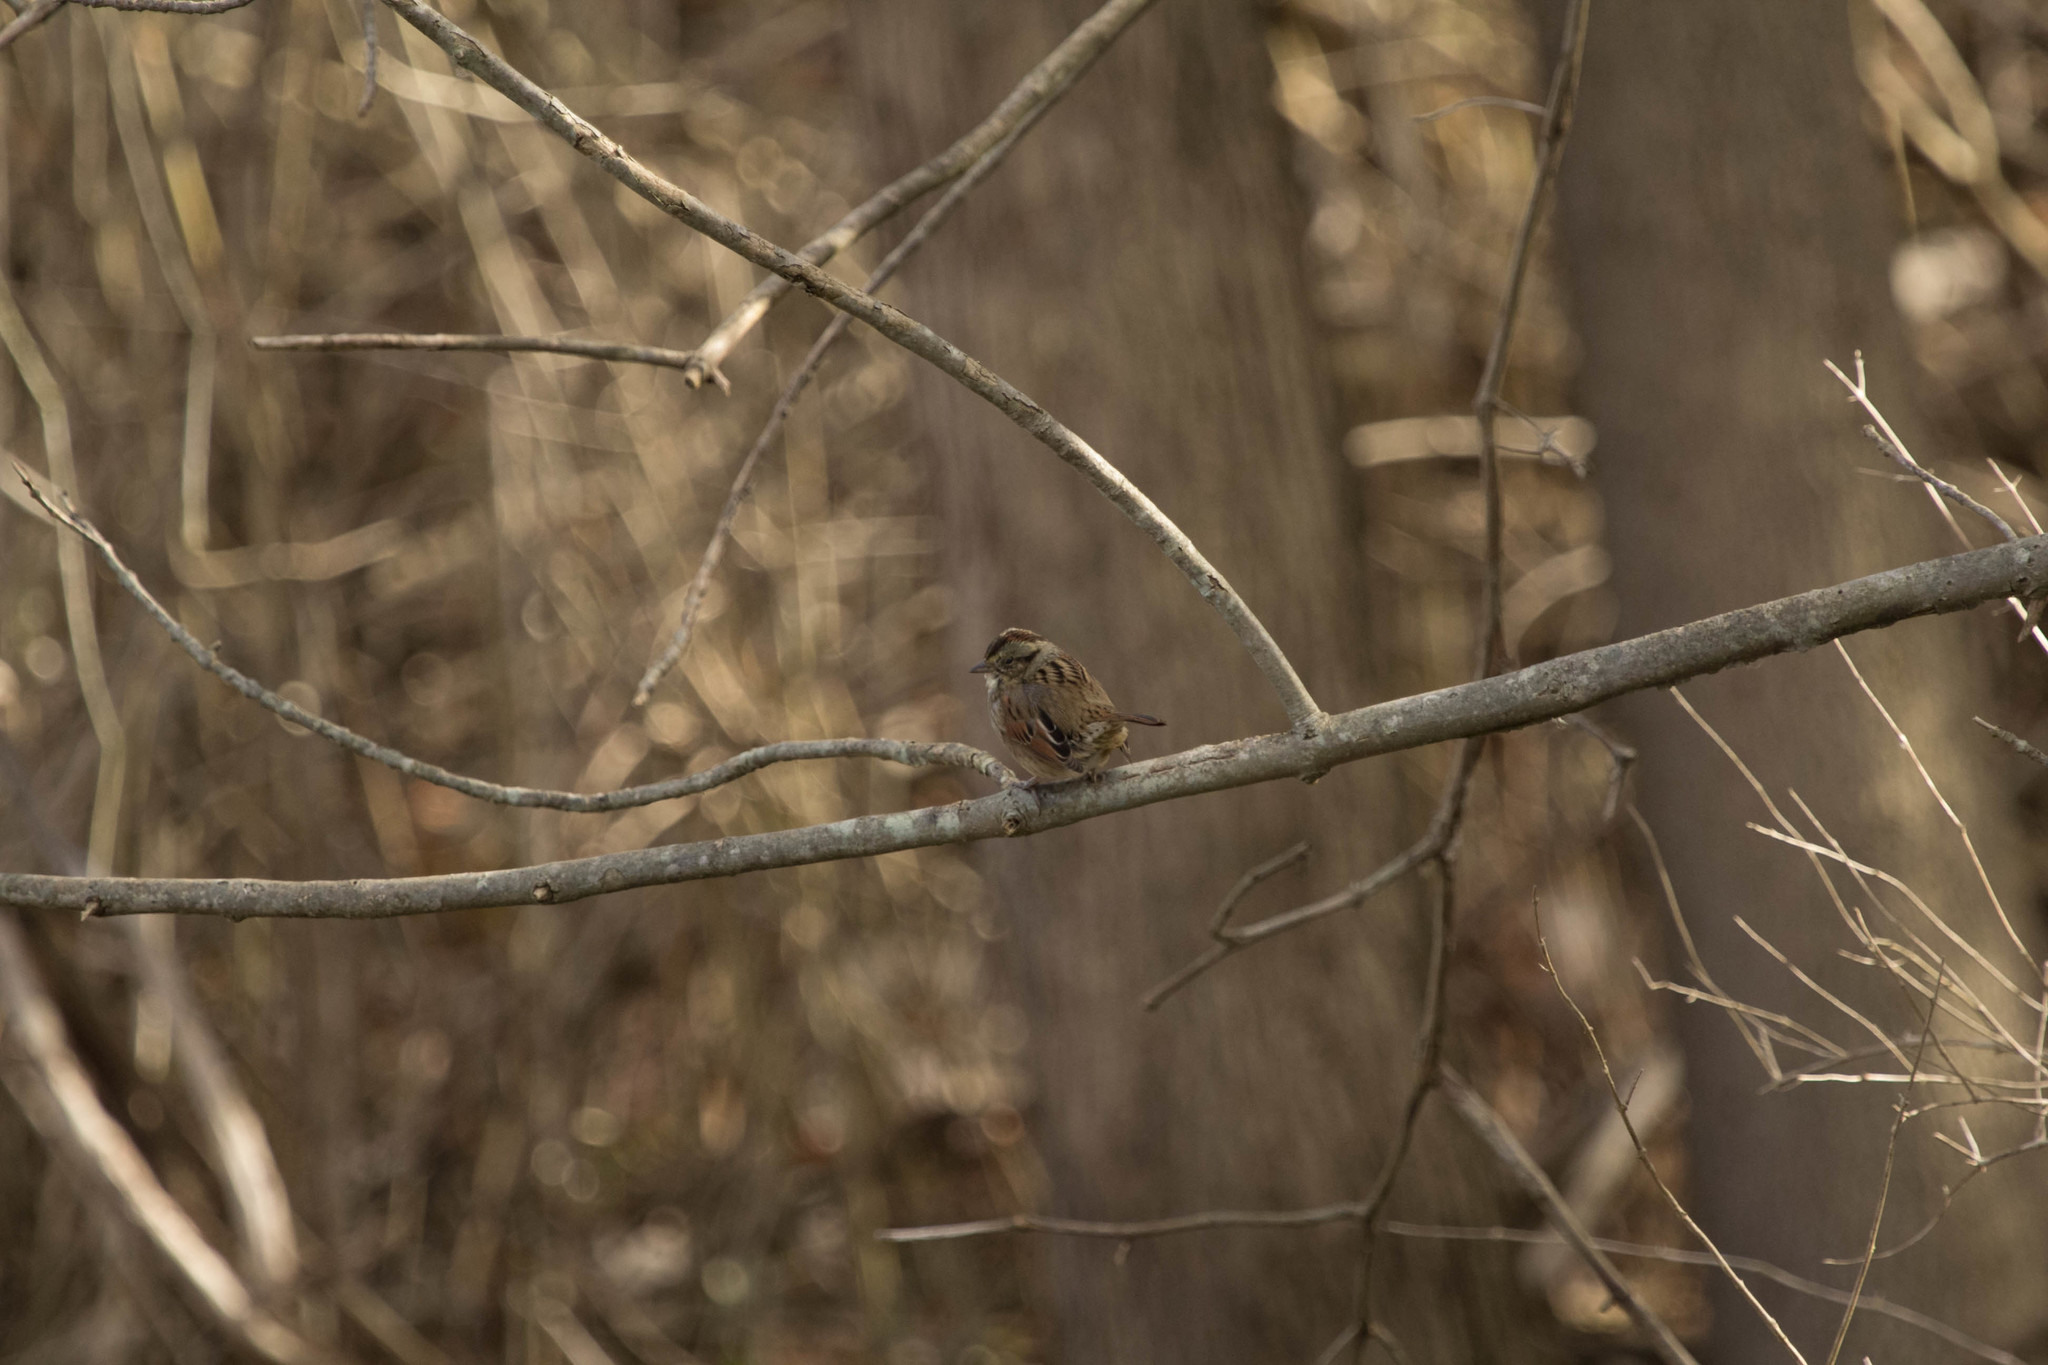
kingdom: Animalia
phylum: Chordata
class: Aves
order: Passeriformes
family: Passerellidae
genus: Melospiza
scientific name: Melospiza georgiana
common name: Swamp sparrow
